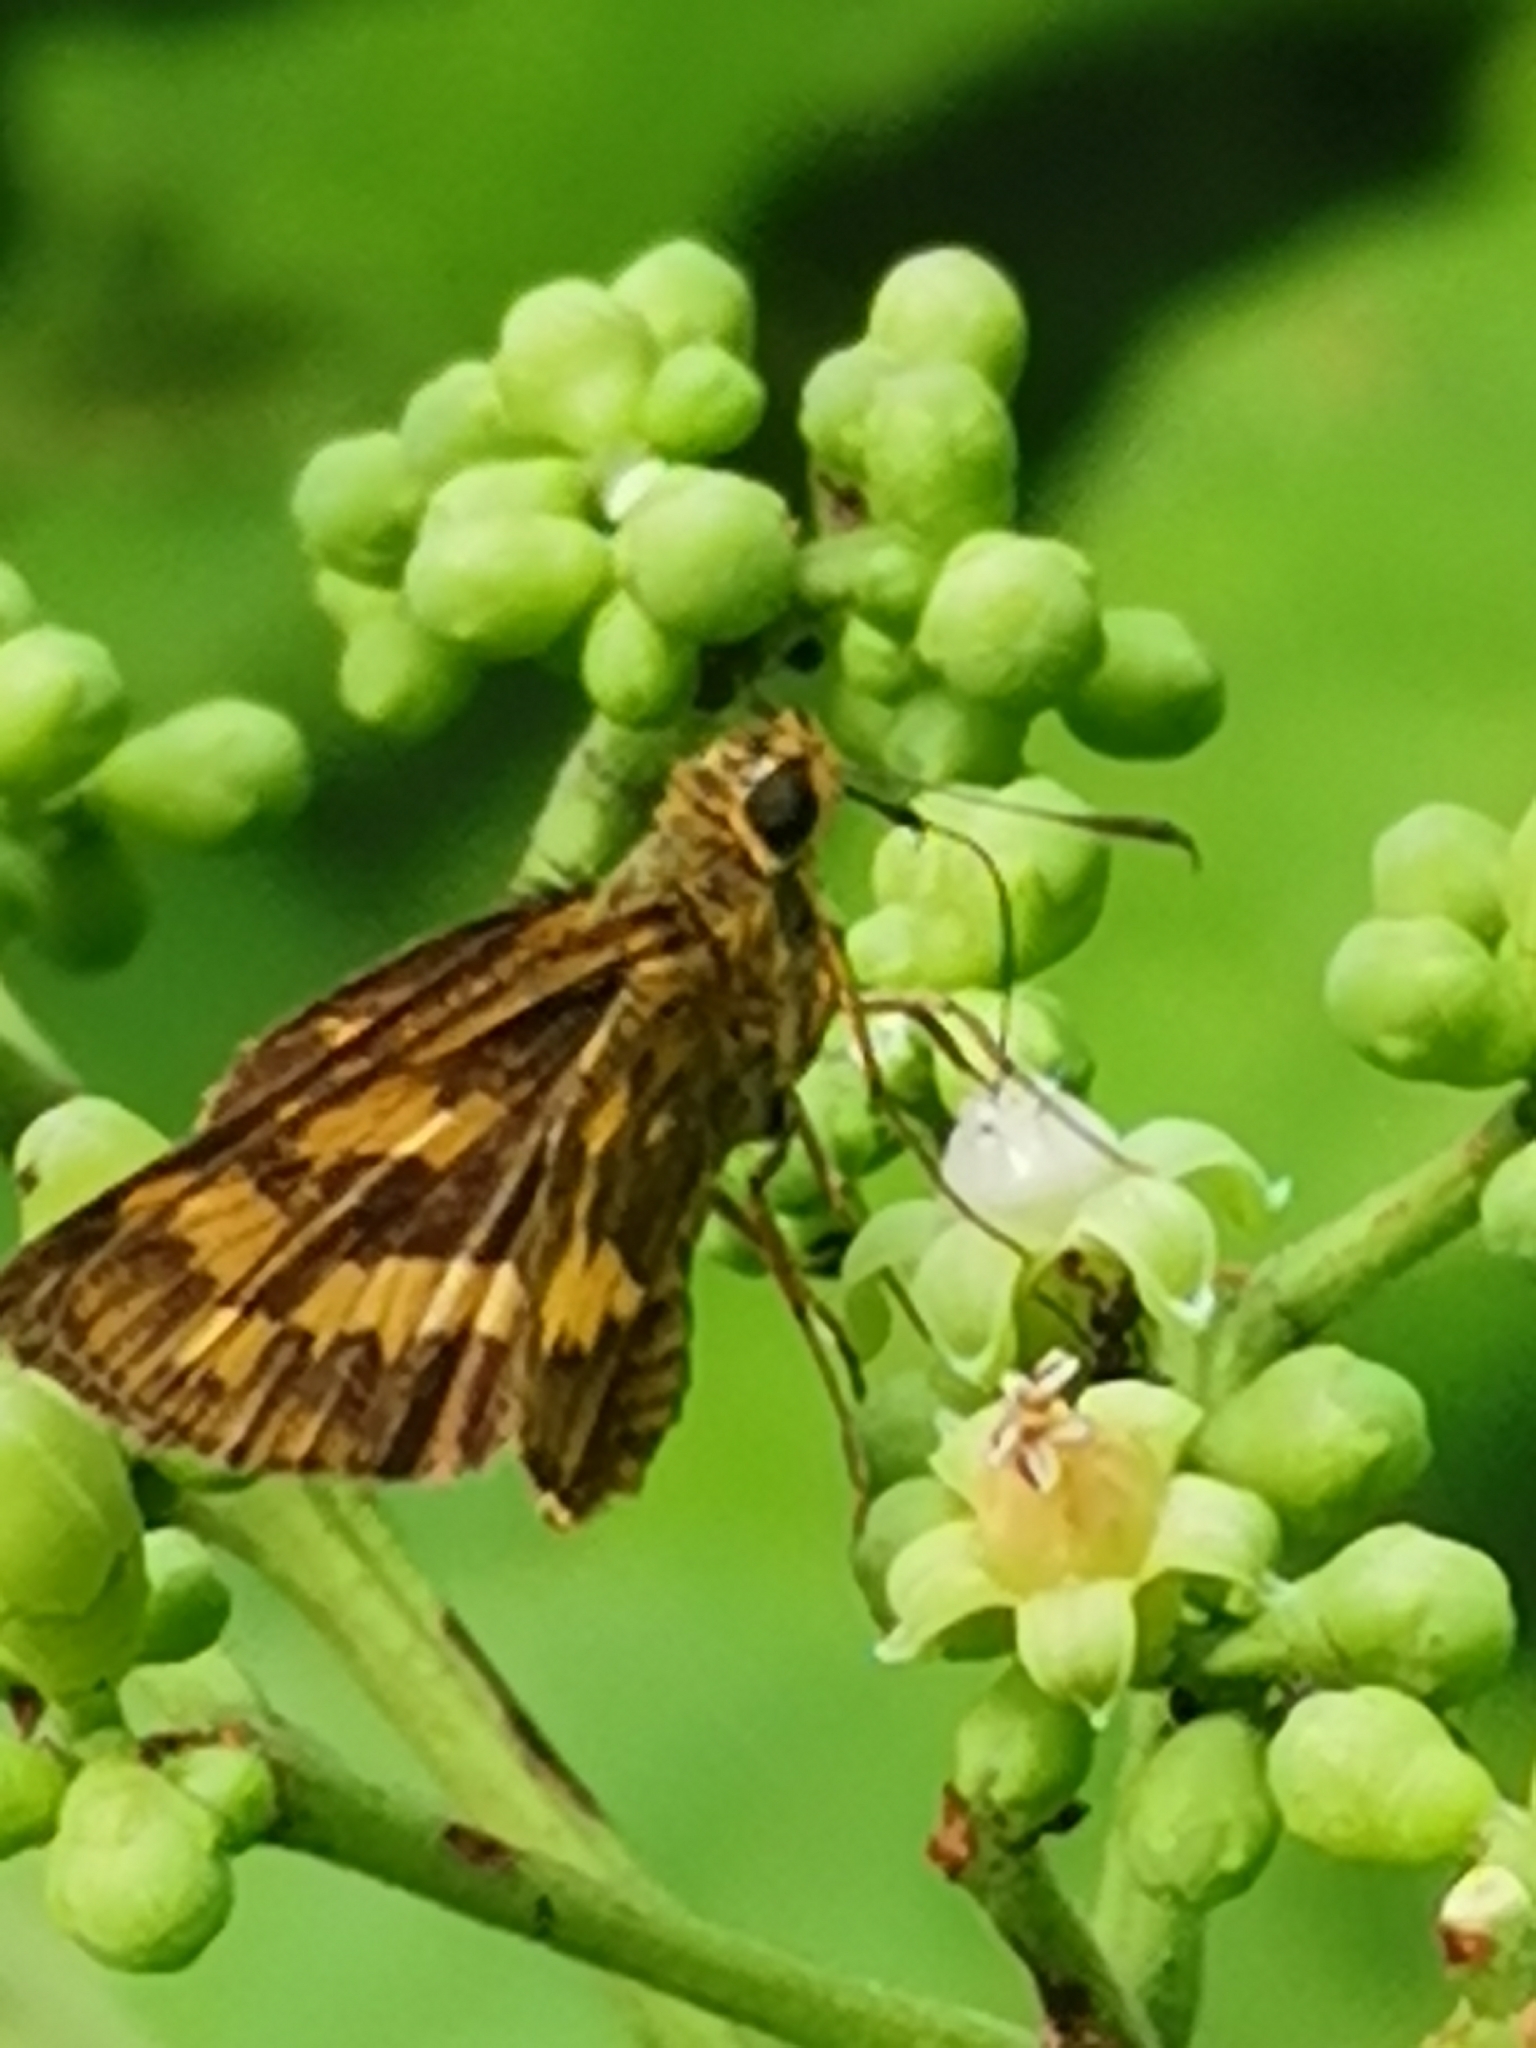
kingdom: Animalia
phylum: Arthropoda
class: Insecta
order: Lepidoptera
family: Hesperiidae
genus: Potanthus
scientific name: Potanthus trachala
